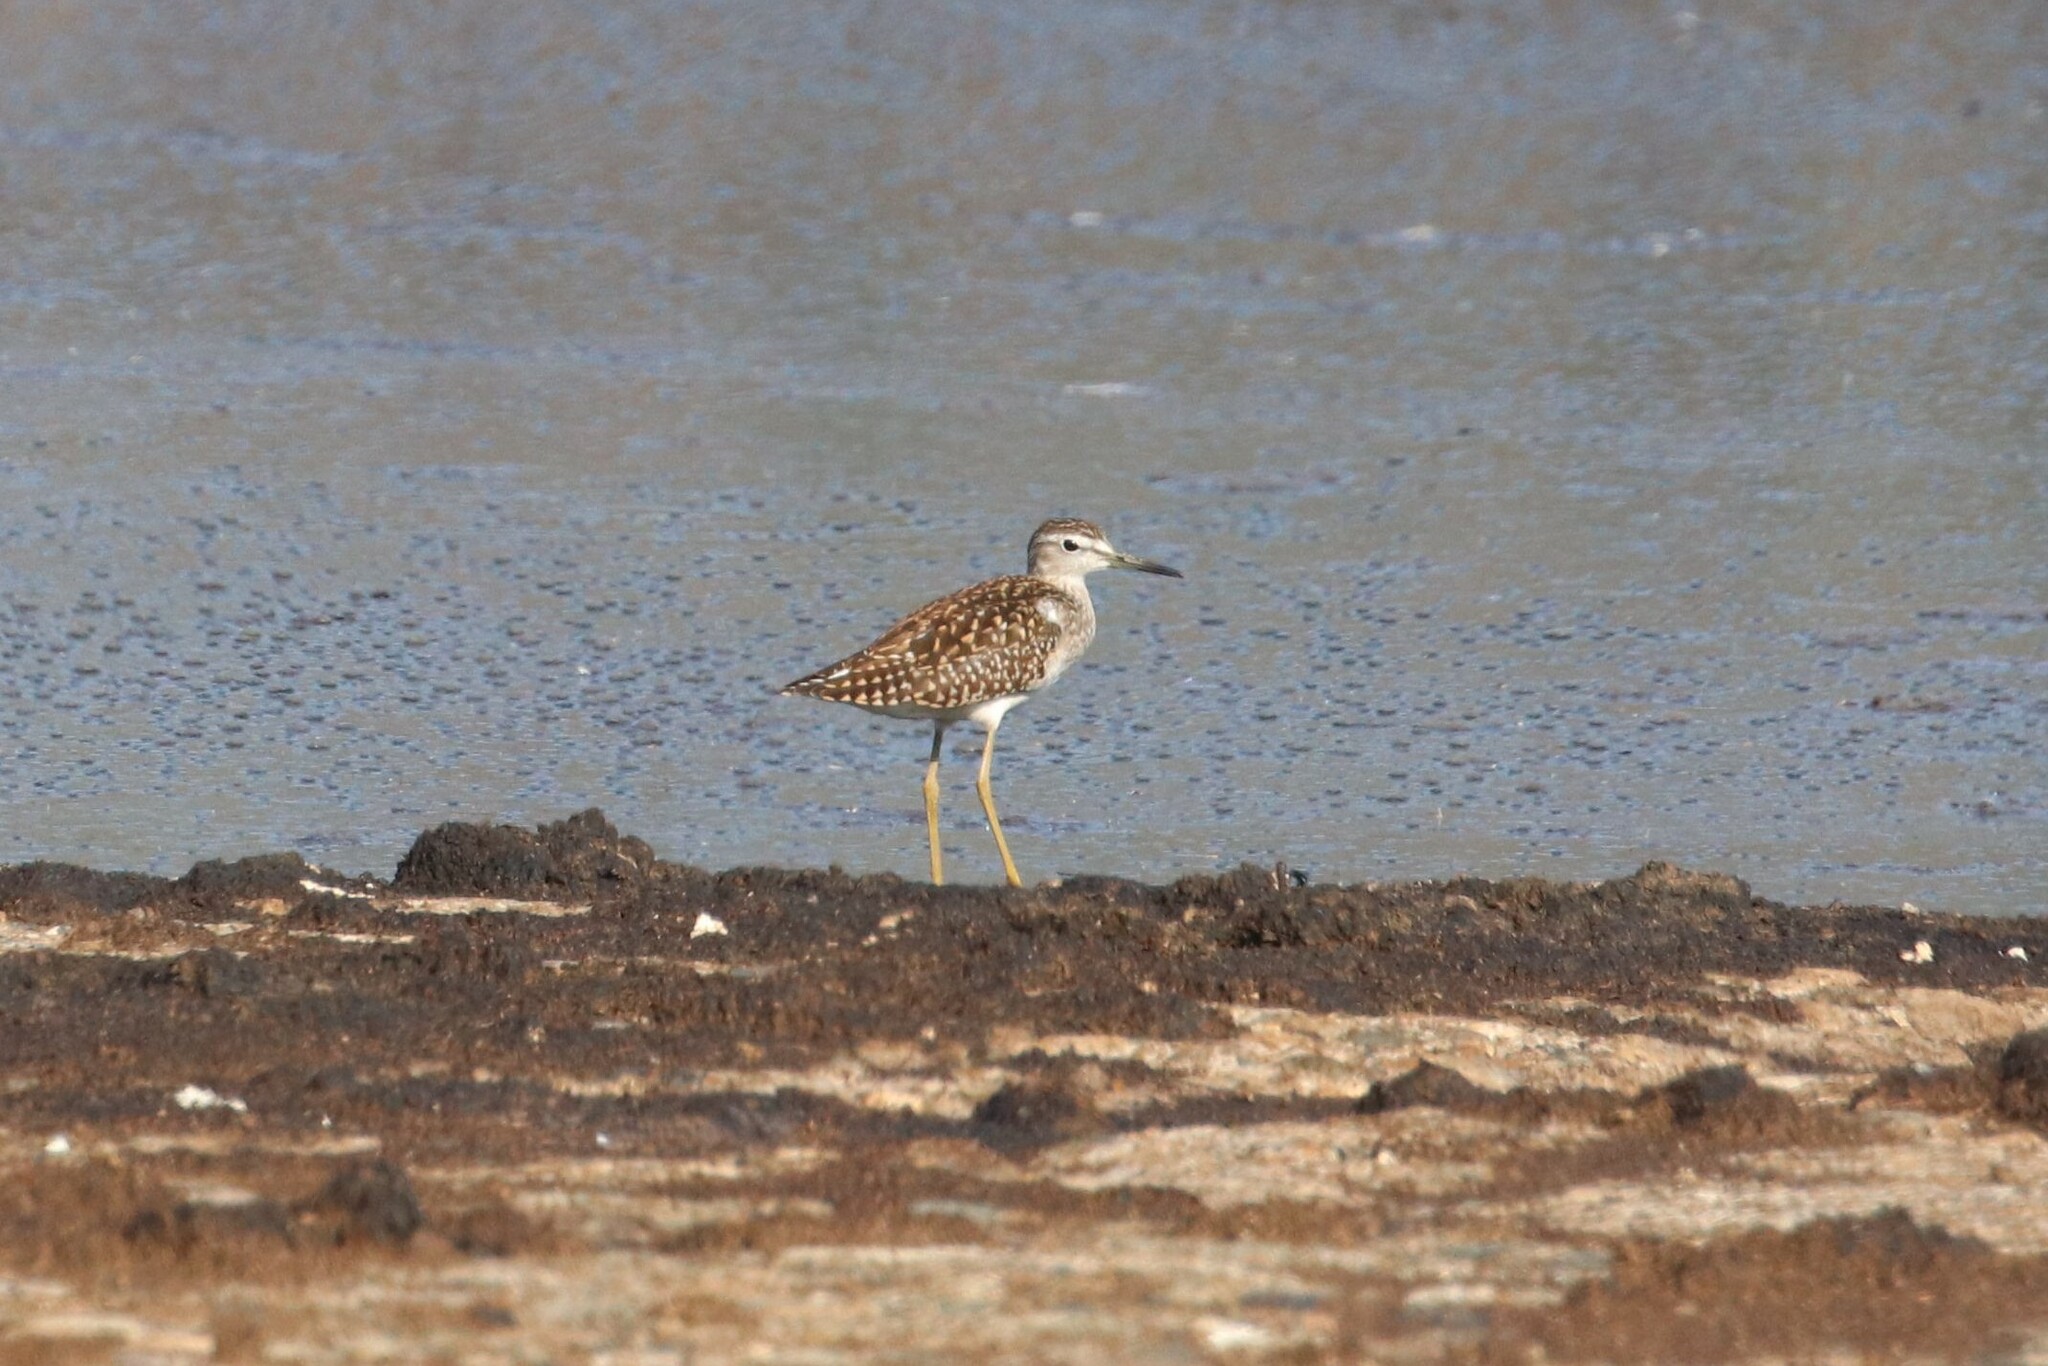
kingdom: Animalia
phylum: Chordata
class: Aves
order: Charadriiformes
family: Scolopacidae
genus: Tringa
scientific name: Tringa glareola
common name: Wood sandpiper
